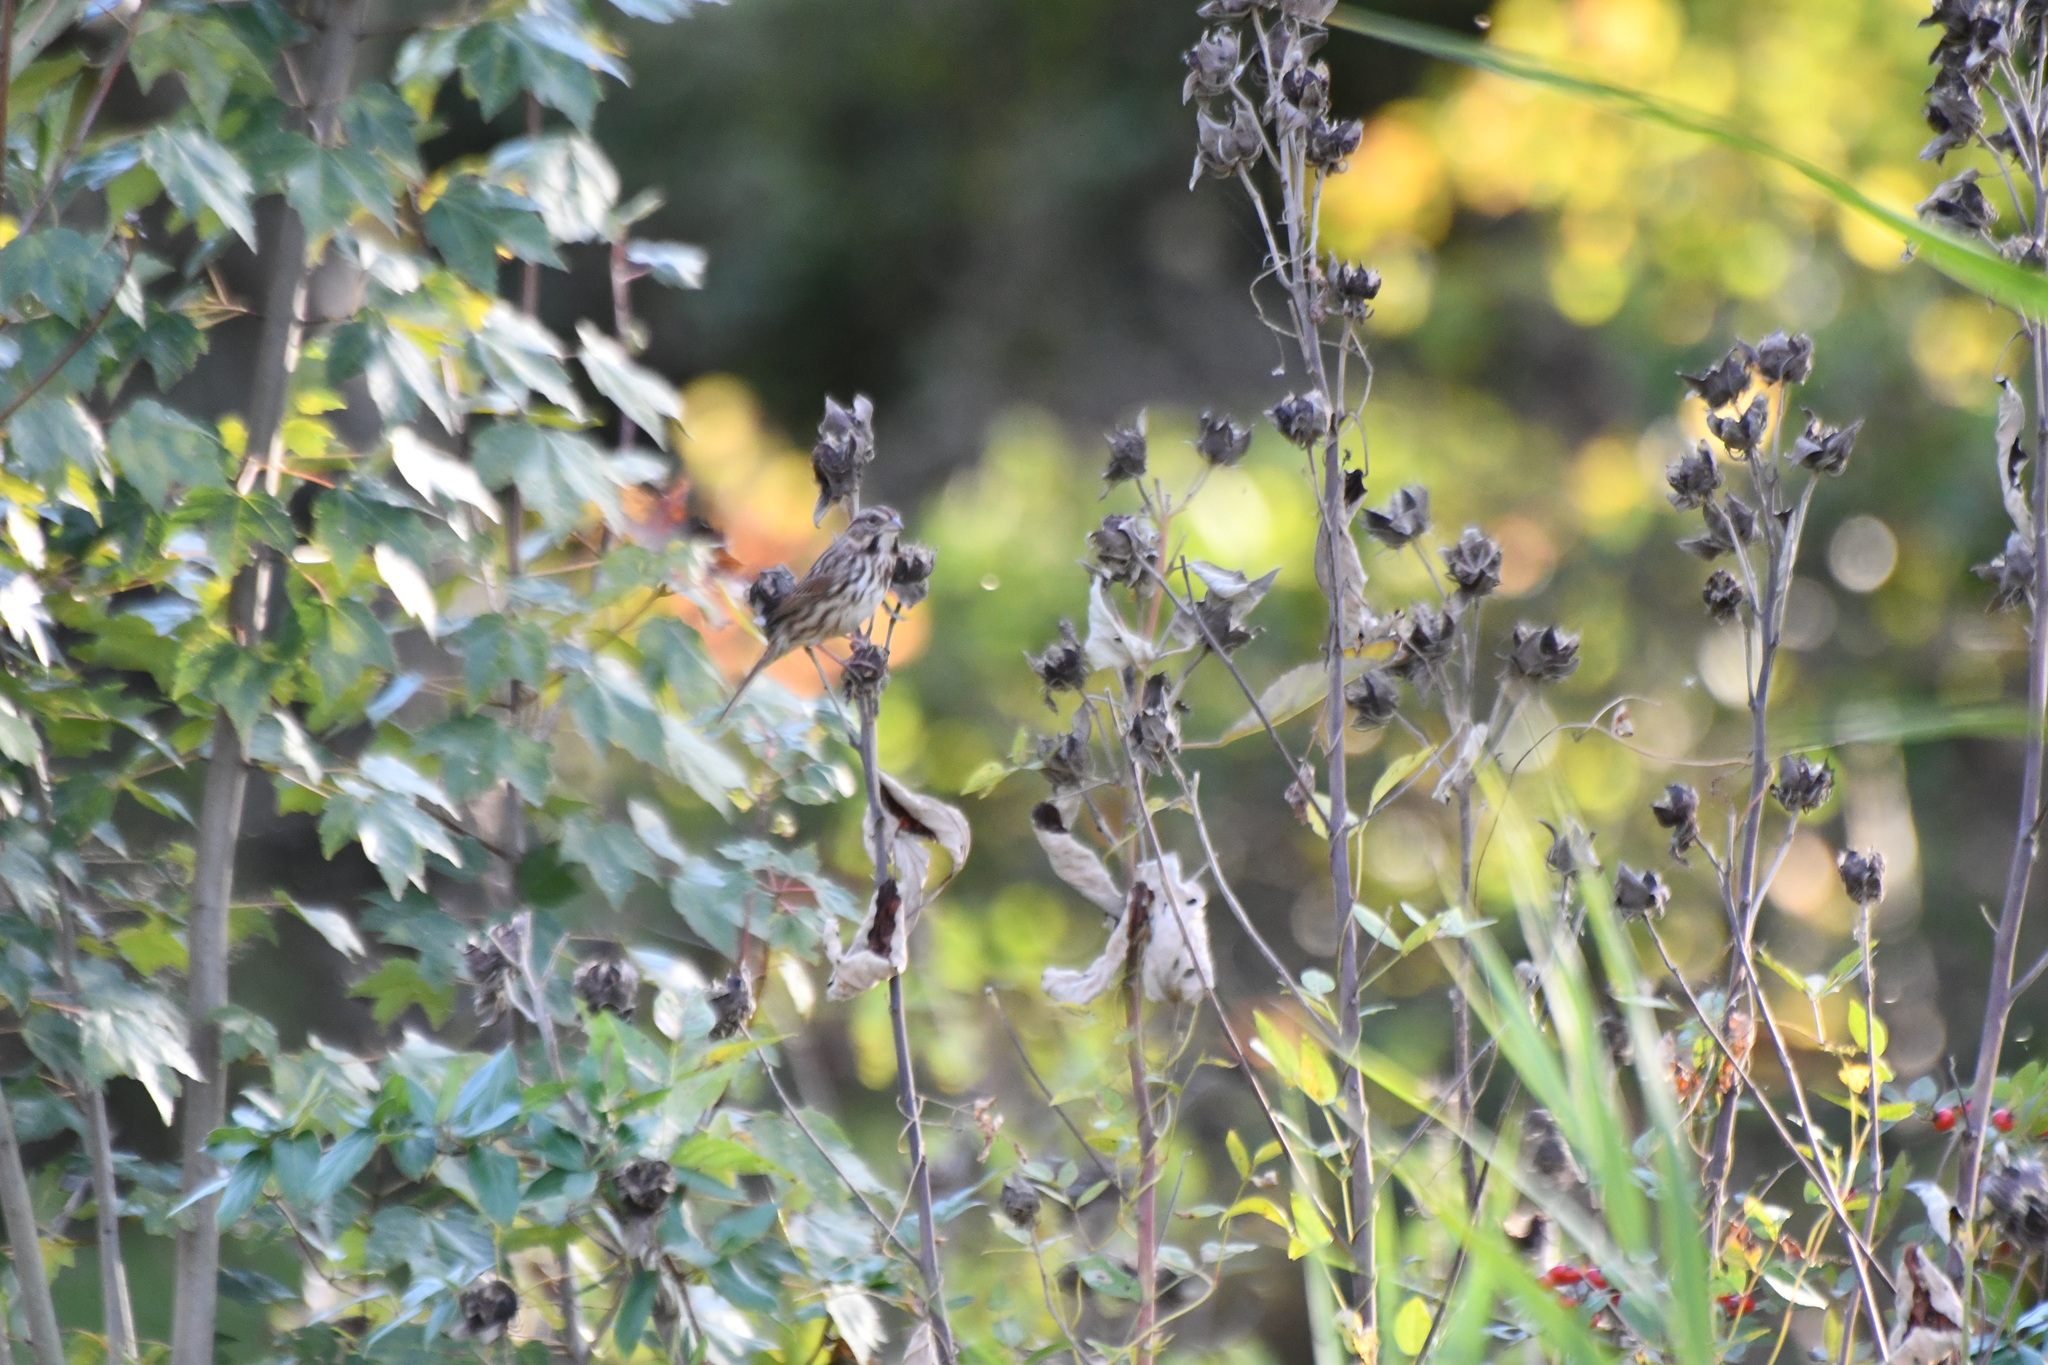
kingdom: Animalia
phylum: Chordata
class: Aves
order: Passeriformes
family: Passerellidae
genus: Melospiza
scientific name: Melospiza melodia
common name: Song sparrow
